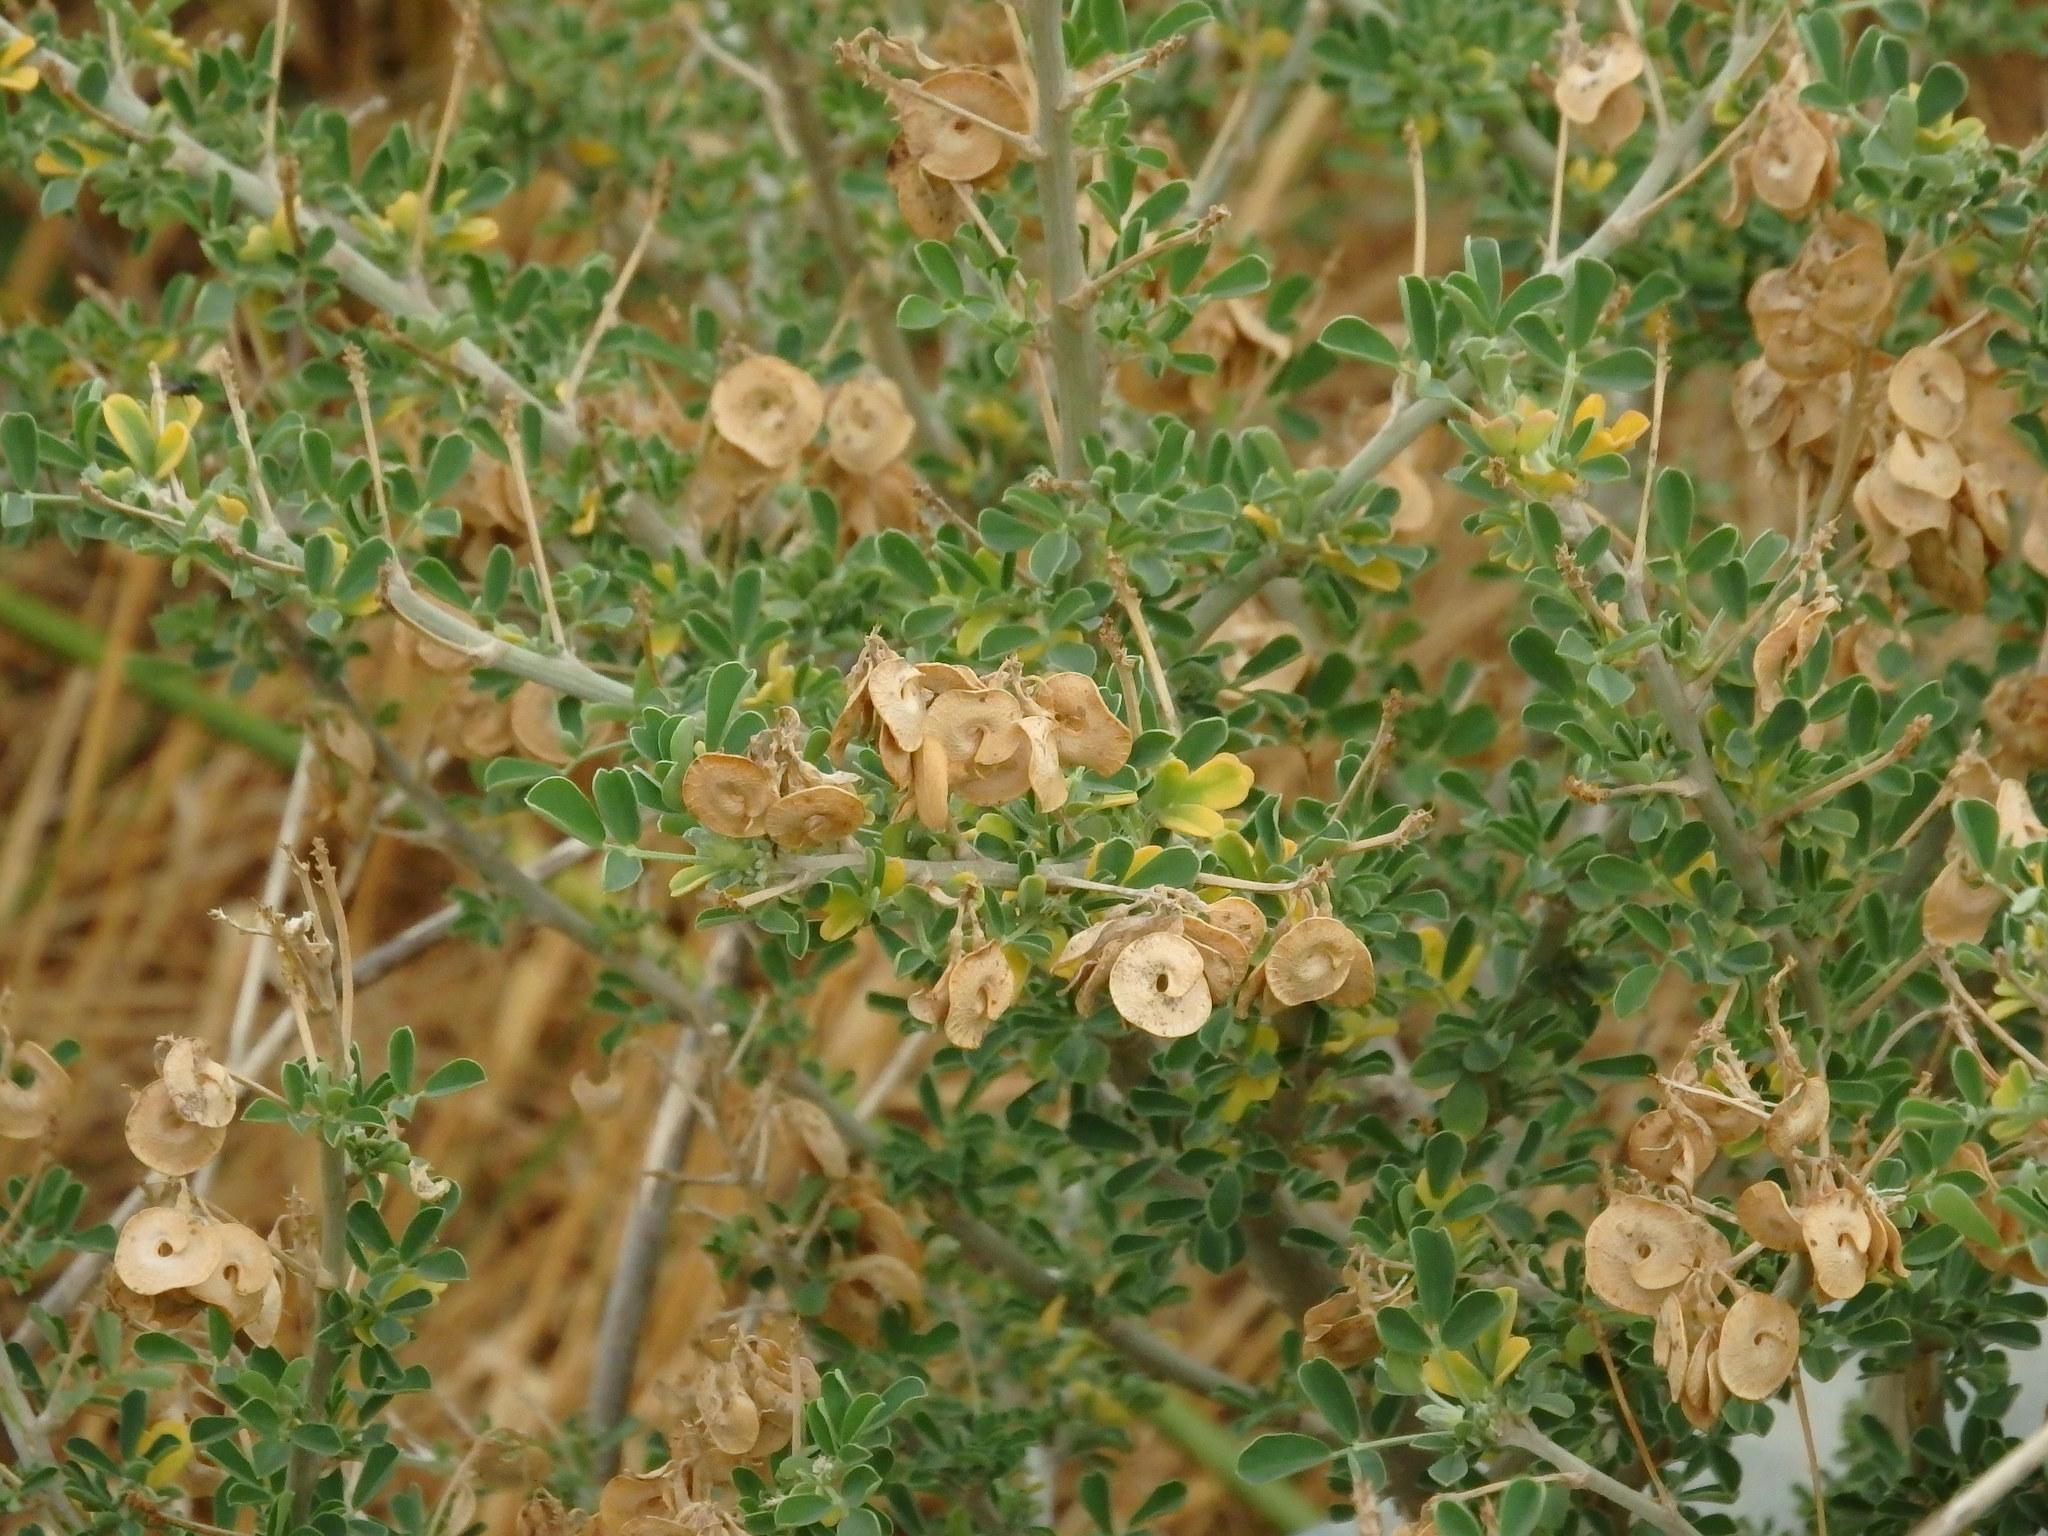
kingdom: Plantae
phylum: Tracheophyta
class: Magnoliopsida
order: Fabales
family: Fabaceae
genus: Medicago
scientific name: Medicago arborea
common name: Moon trefoil
